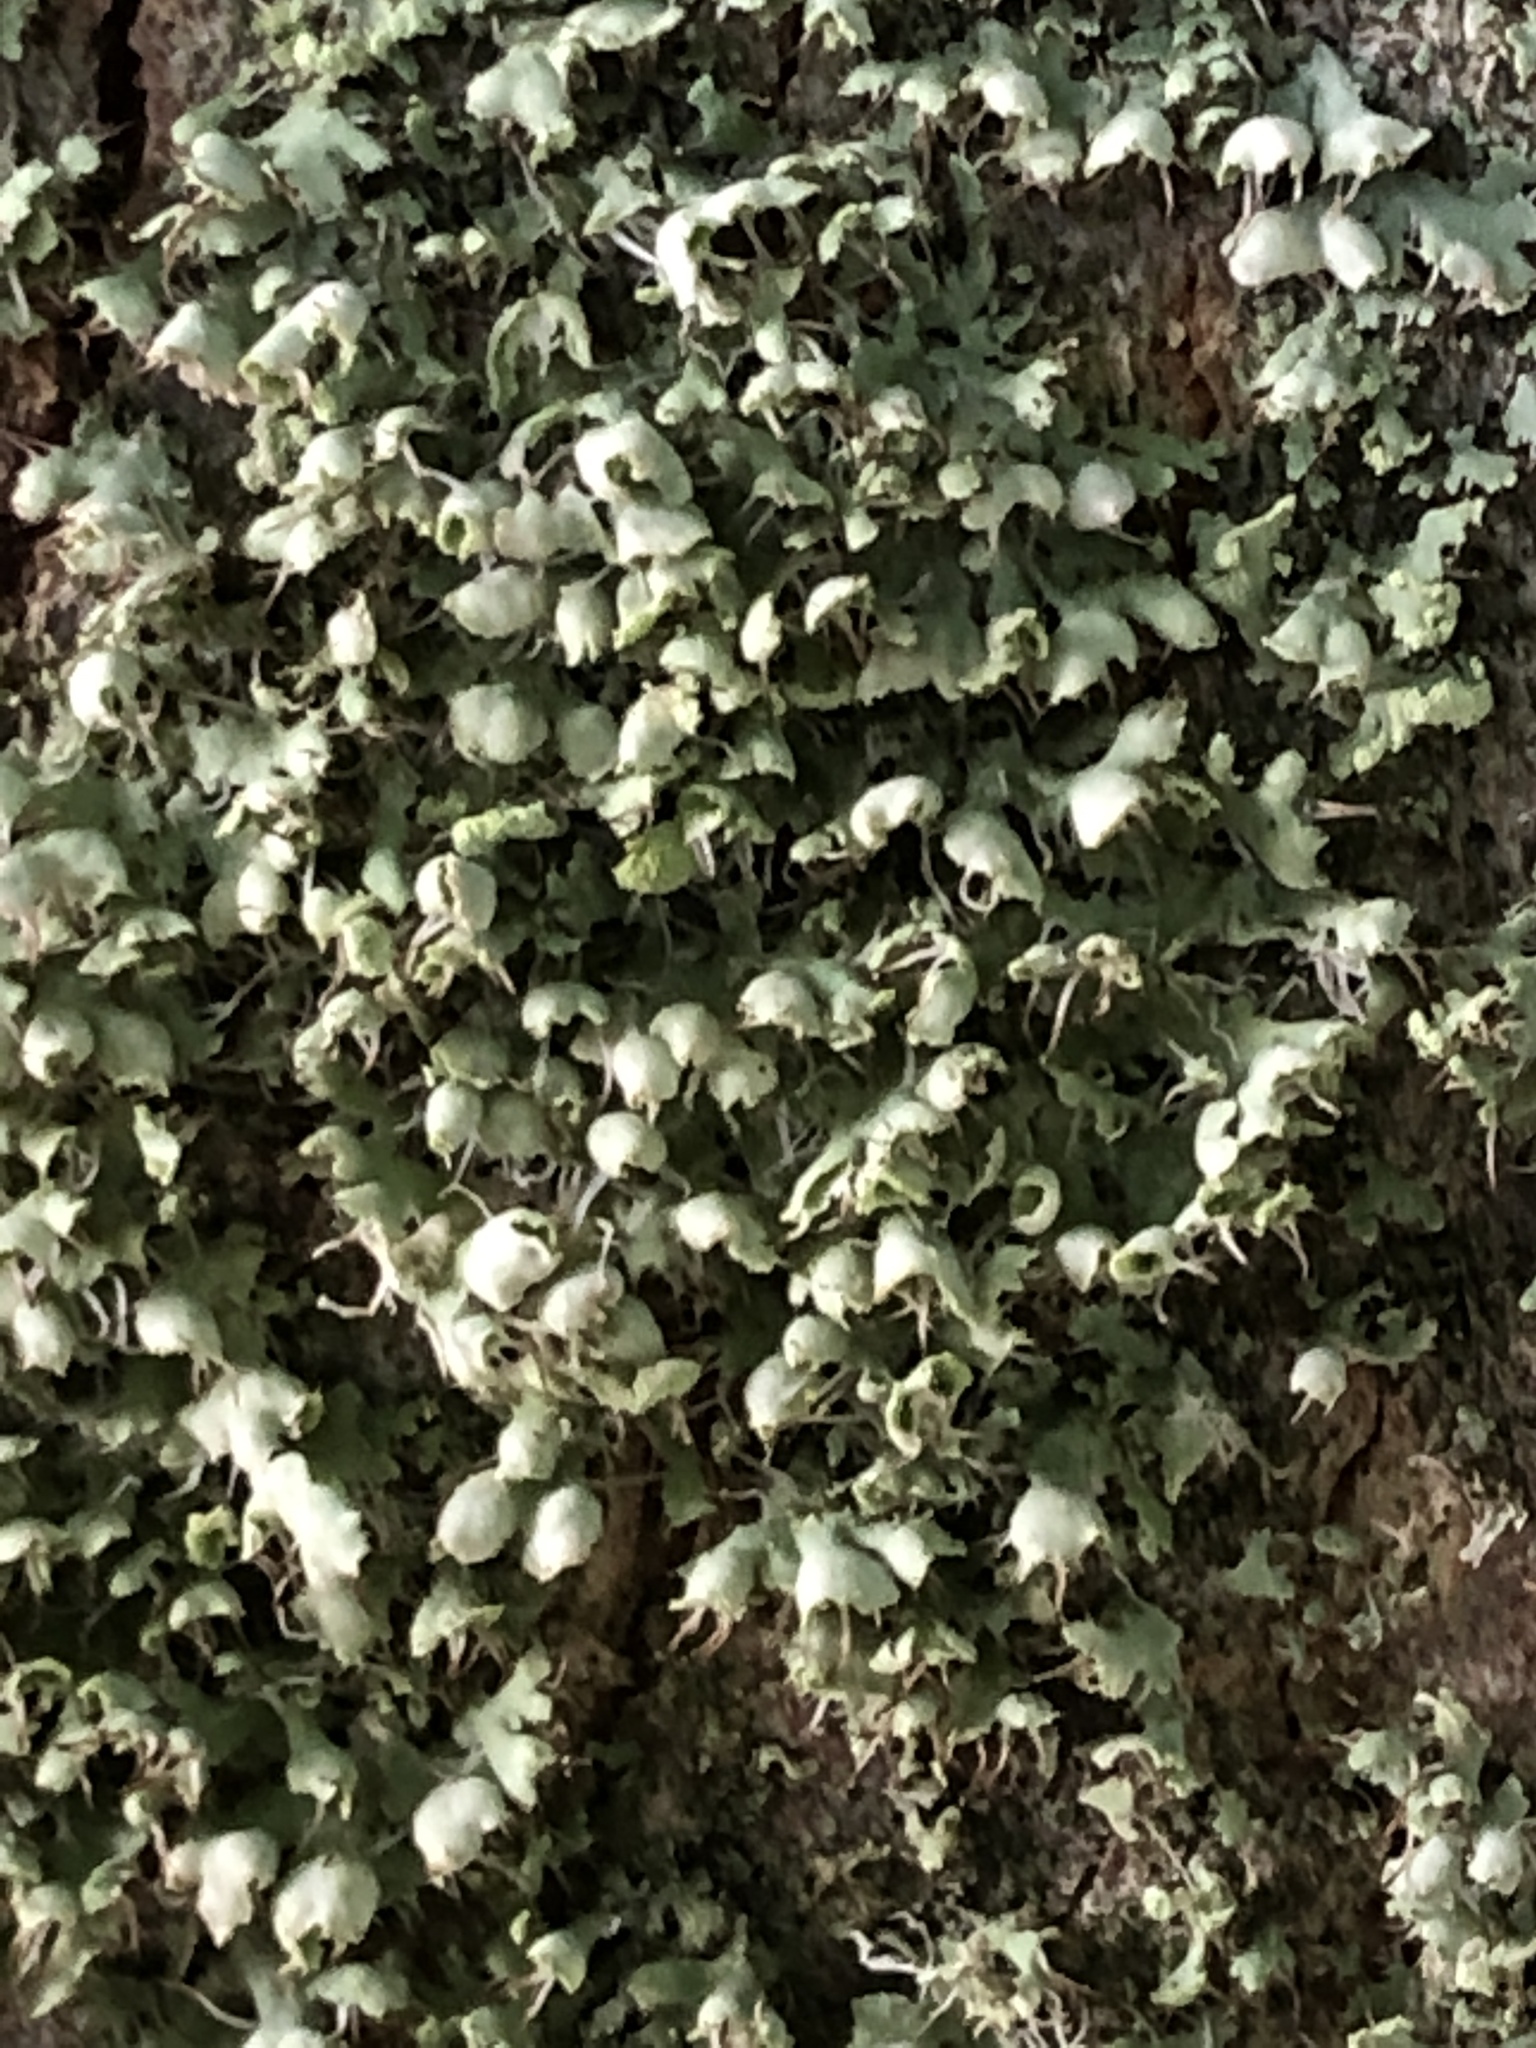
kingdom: Fungi
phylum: Ascomycota
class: Lecanoromycetes
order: Caliciales
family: Physciaceae
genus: Physcia
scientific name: Physcia adscendens
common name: Hooded rosette lichen
